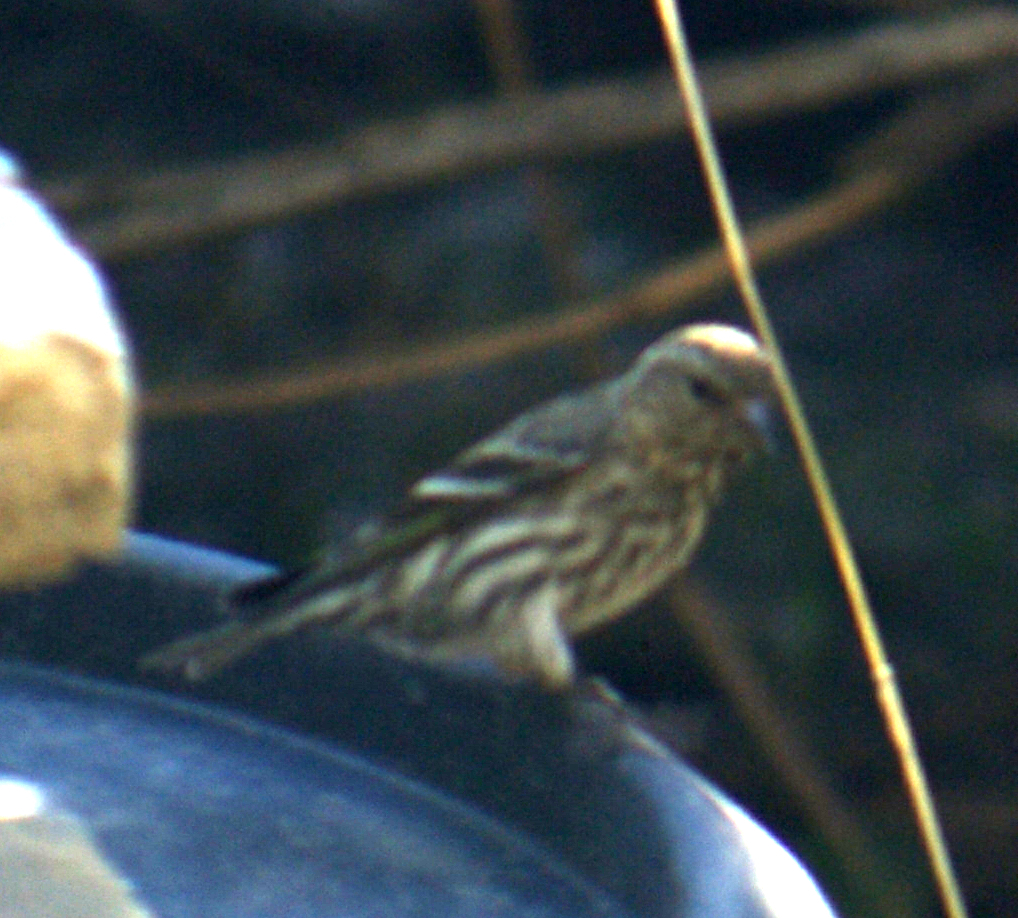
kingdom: Animalia
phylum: Chordata
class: Aves
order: Passeriformes
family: Fringillidae
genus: Spinus
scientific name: Spinus pinus
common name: Pine siskin
